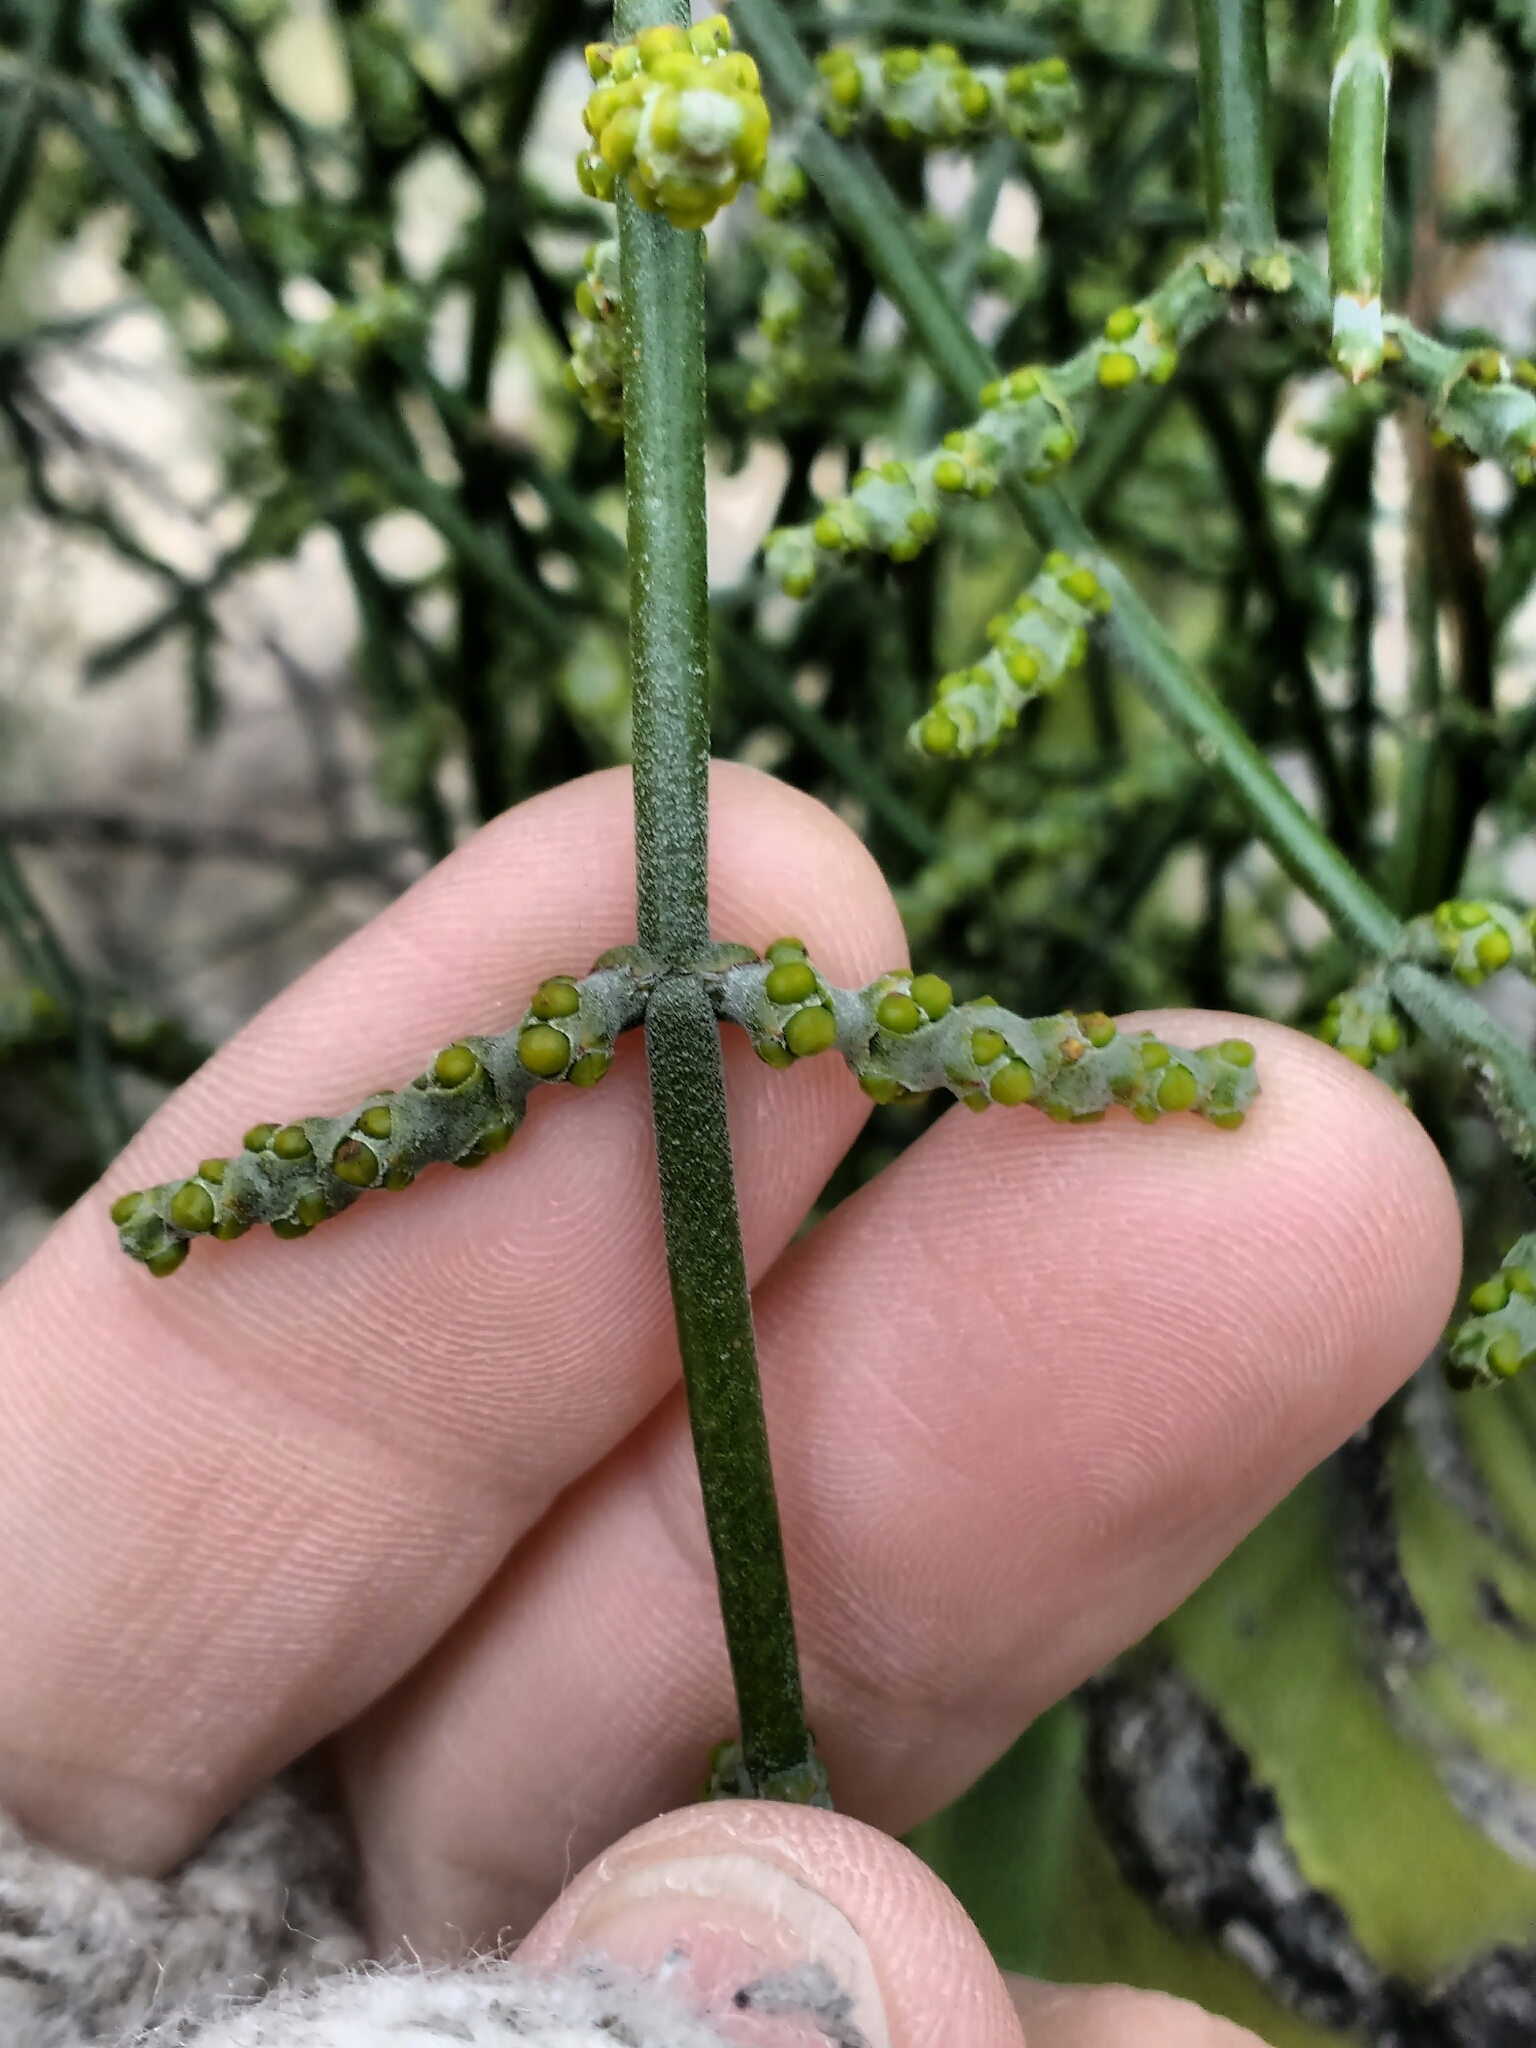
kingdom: Plantae
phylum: Tracheophyta
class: Magnoliopsida
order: Santalales
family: Viscaceae
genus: Phoradendron
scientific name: Phoradendron californicum
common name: Acacia mistletoe
